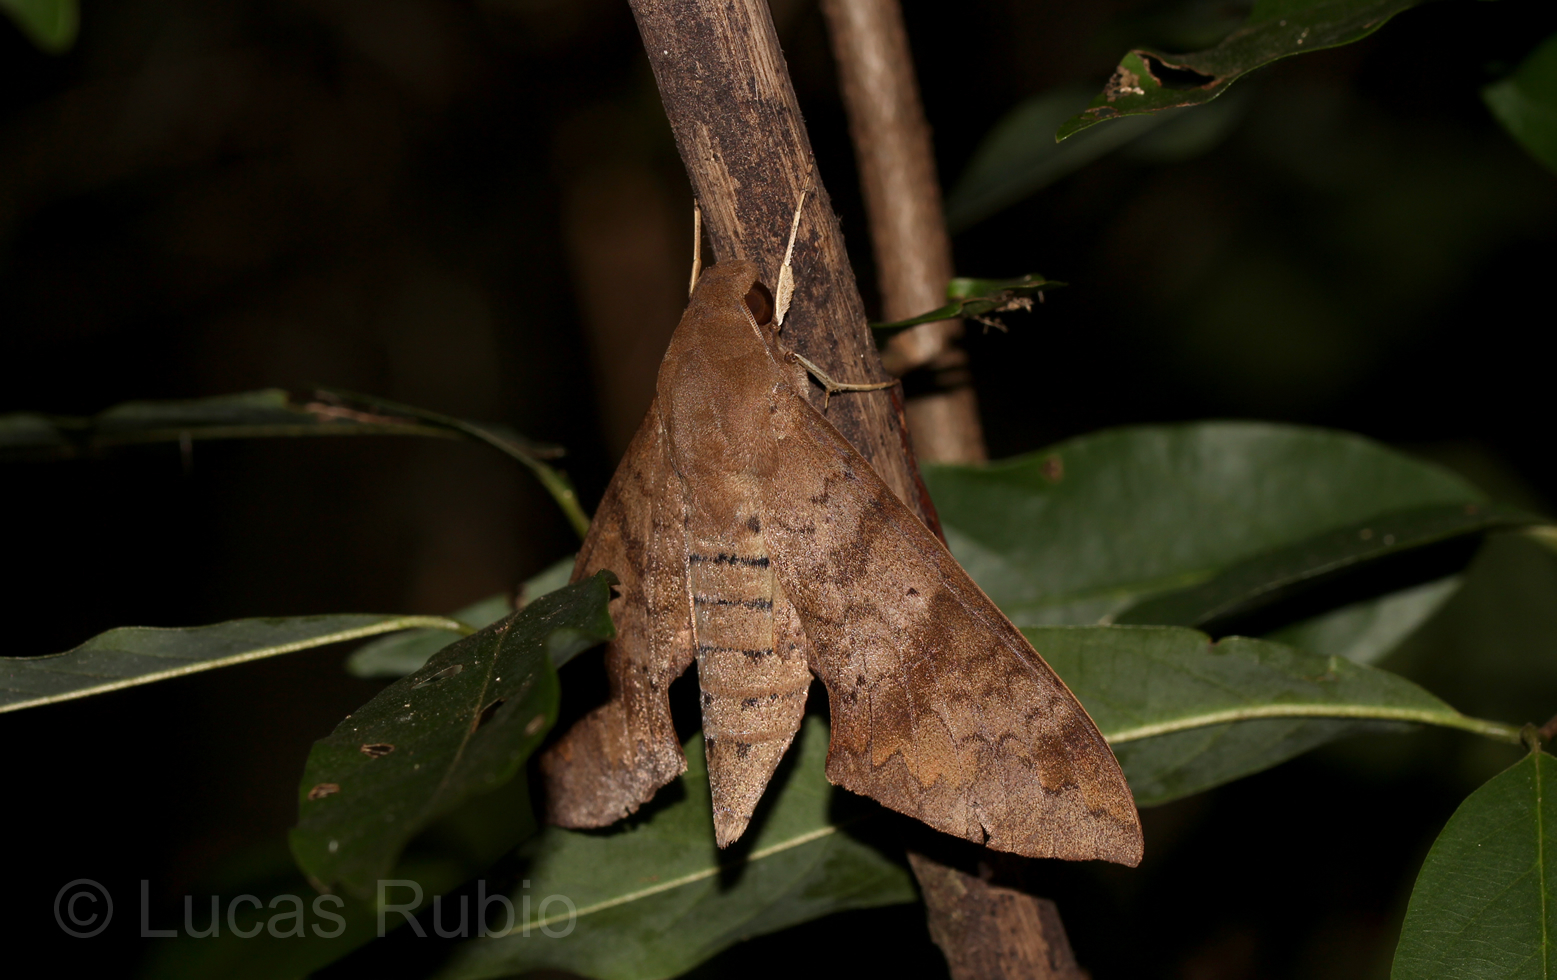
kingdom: Animalia
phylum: Arthropoda
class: Insecta
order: Lepidoptera
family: Sphingidae
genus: Pachylioides
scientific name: Pachylioides resumens
